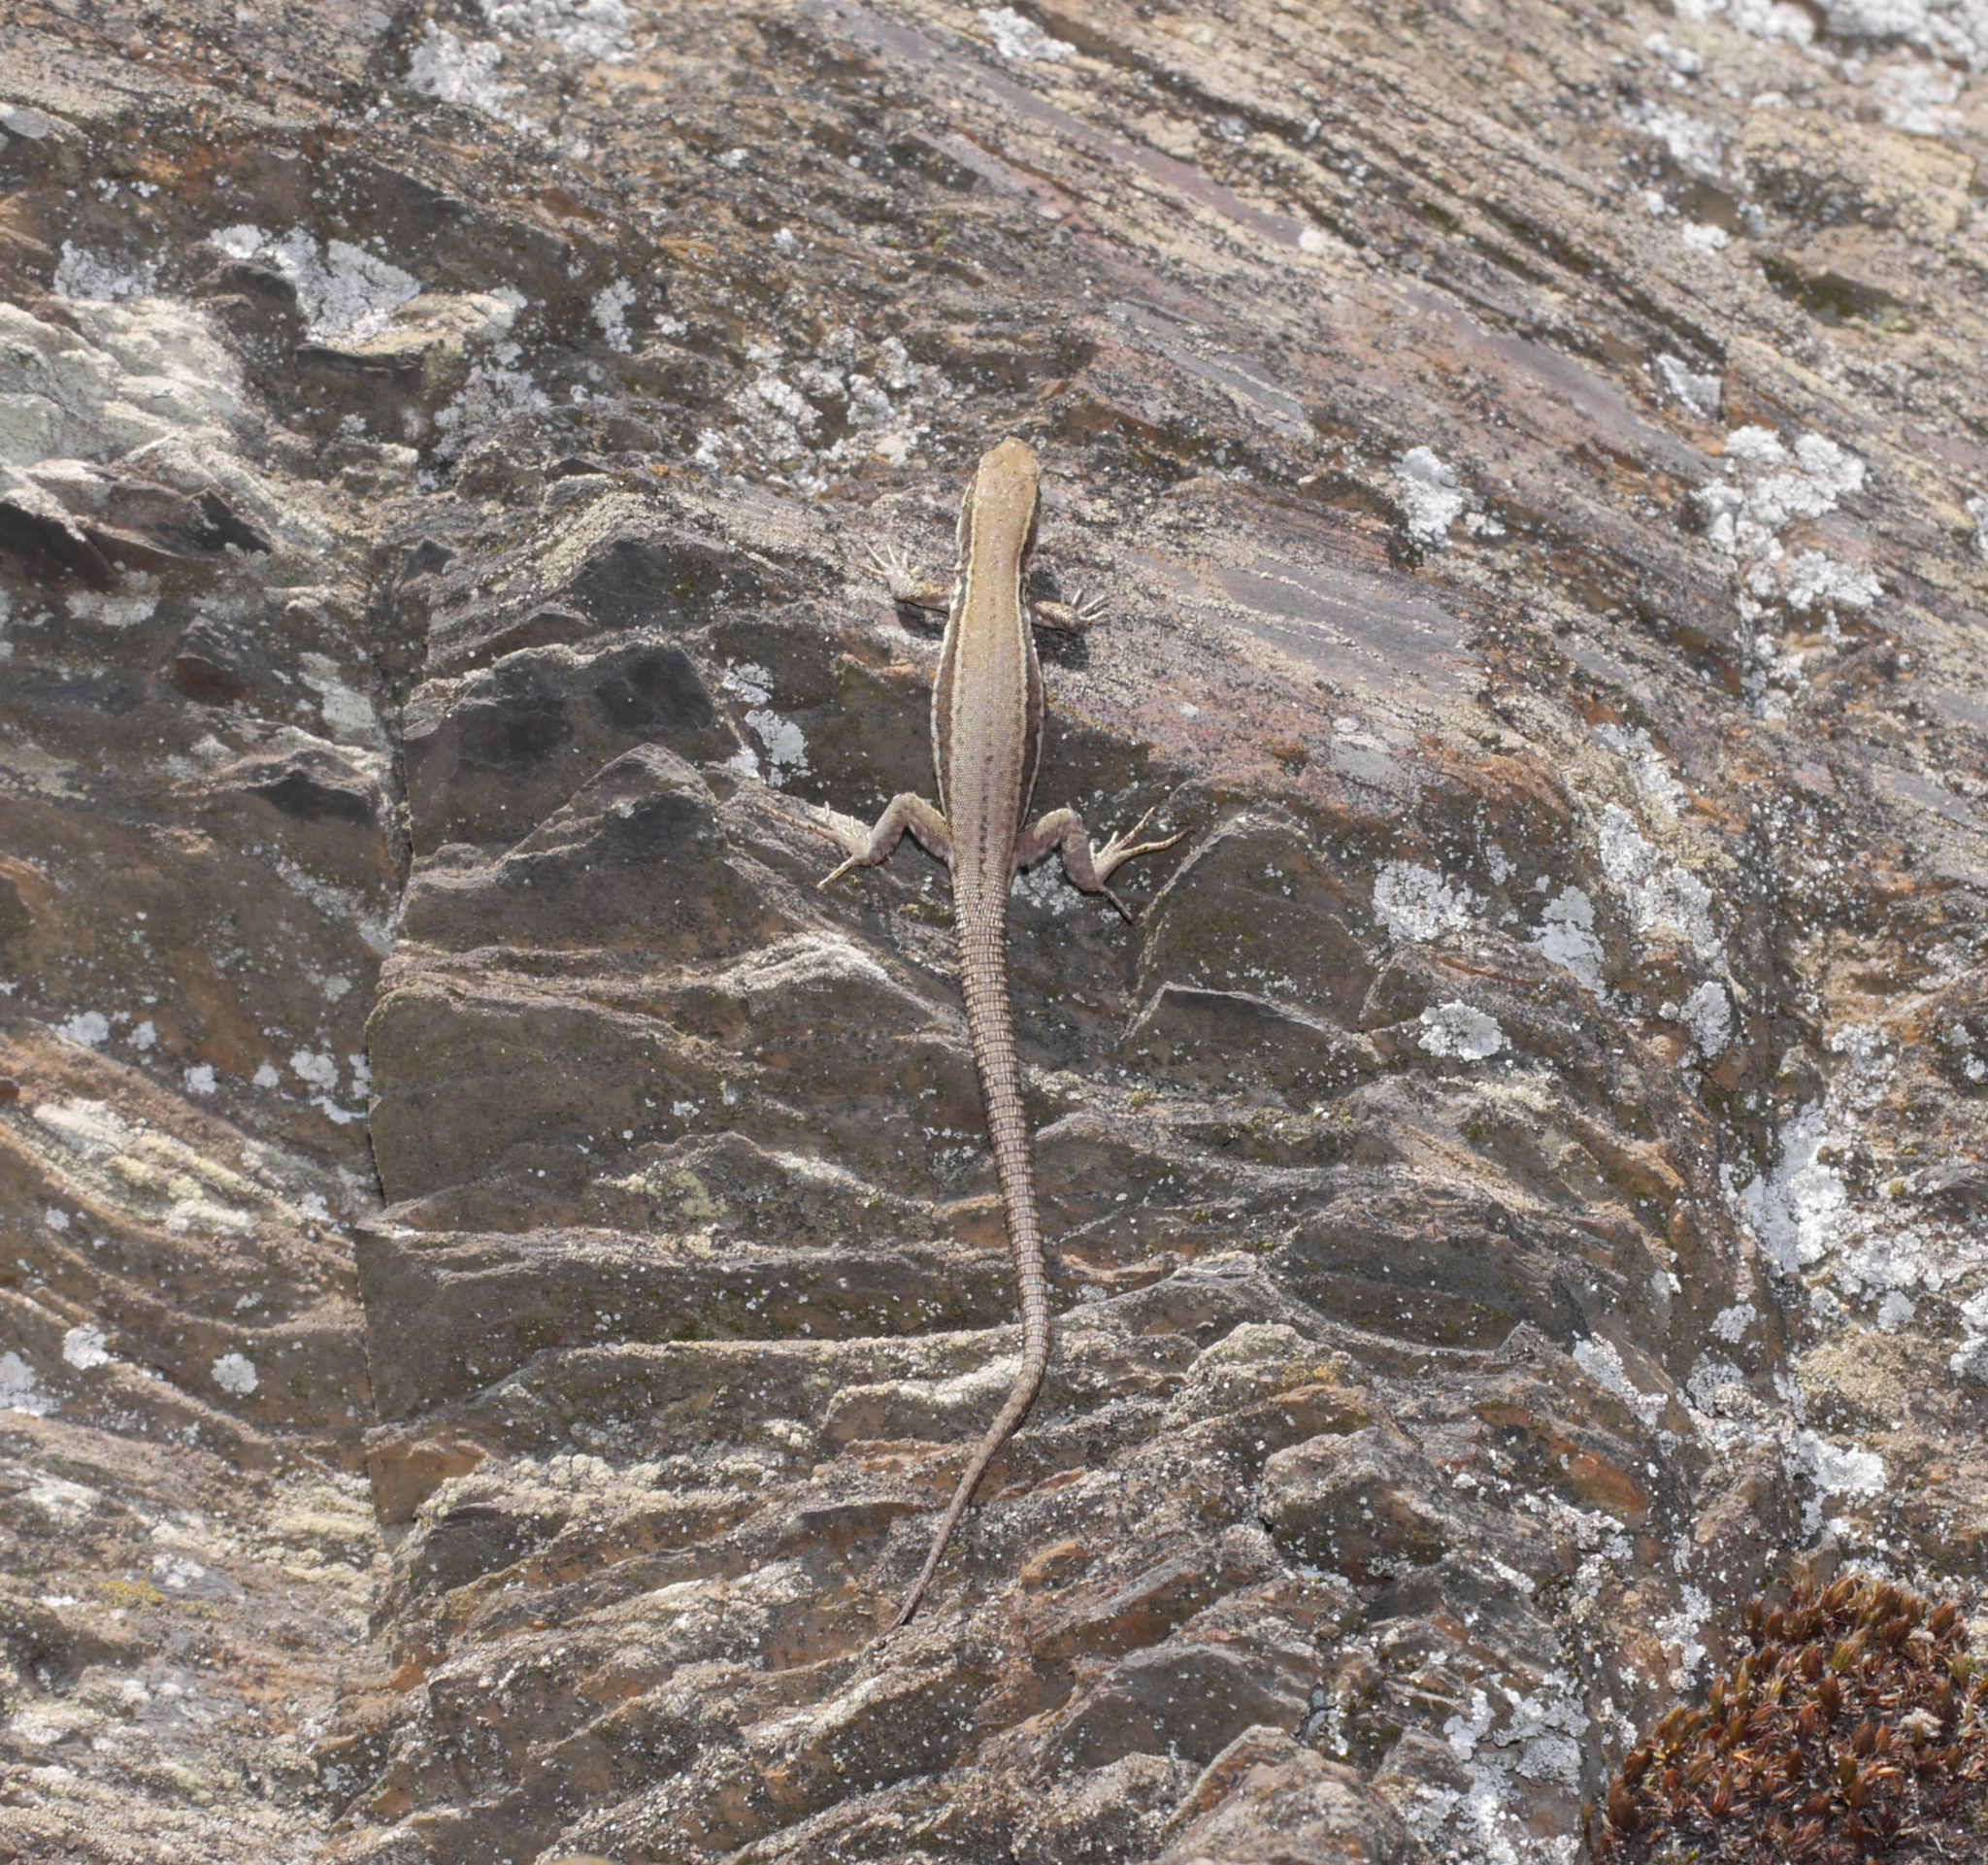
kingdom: Animalia
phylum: Chordata
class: Squamata
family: Lacertidae
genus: Podarcis
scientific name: Podarcis muralis
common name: Common wall lizard
